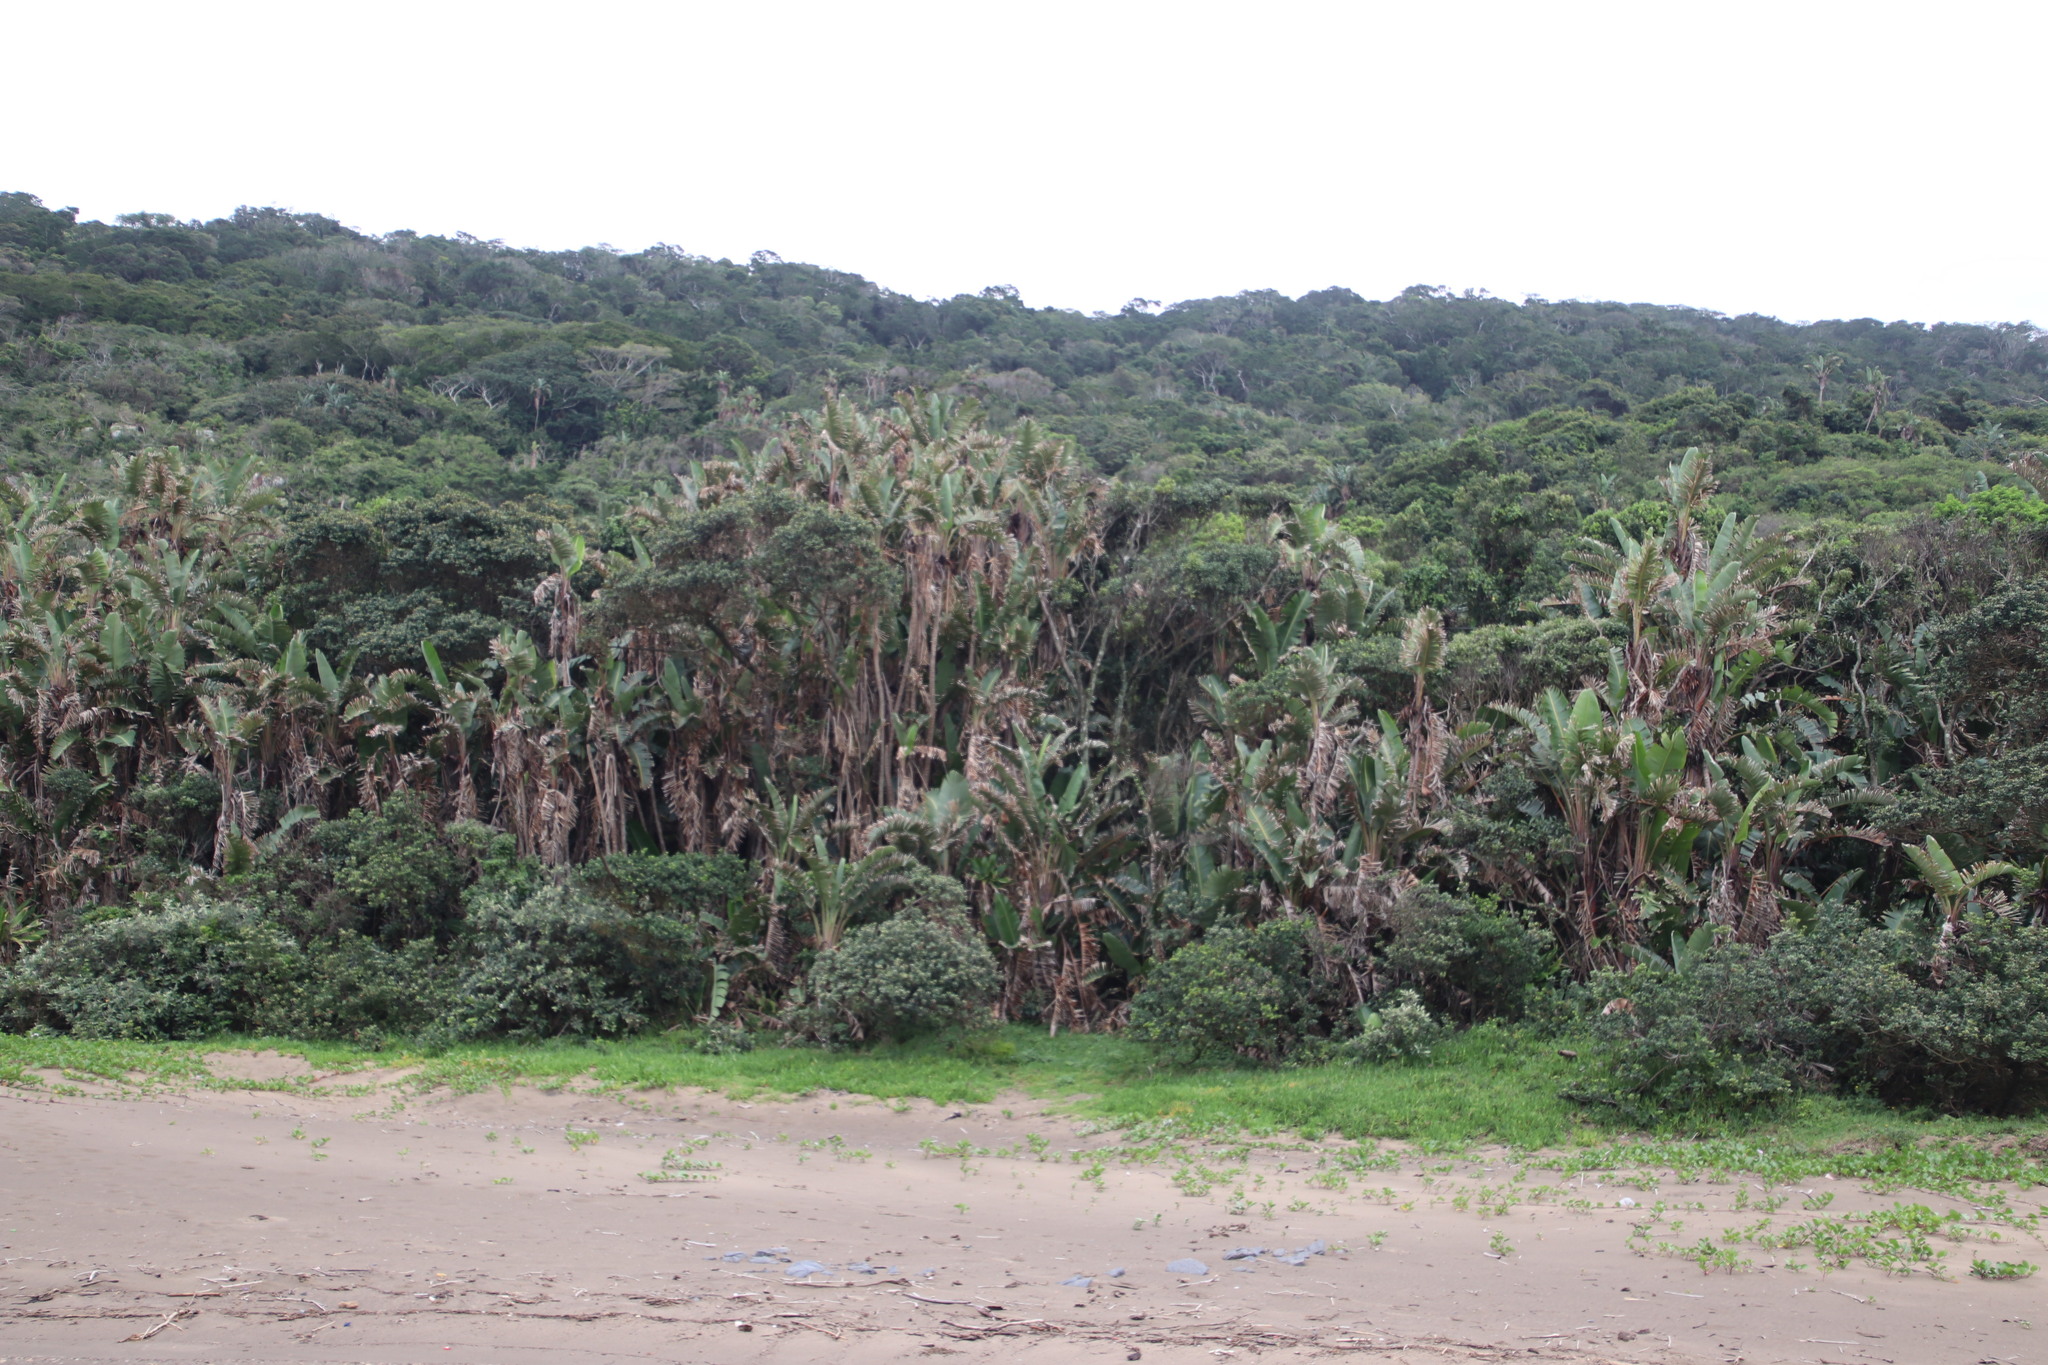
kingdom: Plantae
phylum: Tracheophyta
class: Liliopsida
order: Zingiberales
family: Strelitziaceae
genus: Strelitzia
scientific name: Strelitzia nicolai
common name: Bird-of-paradise tree
